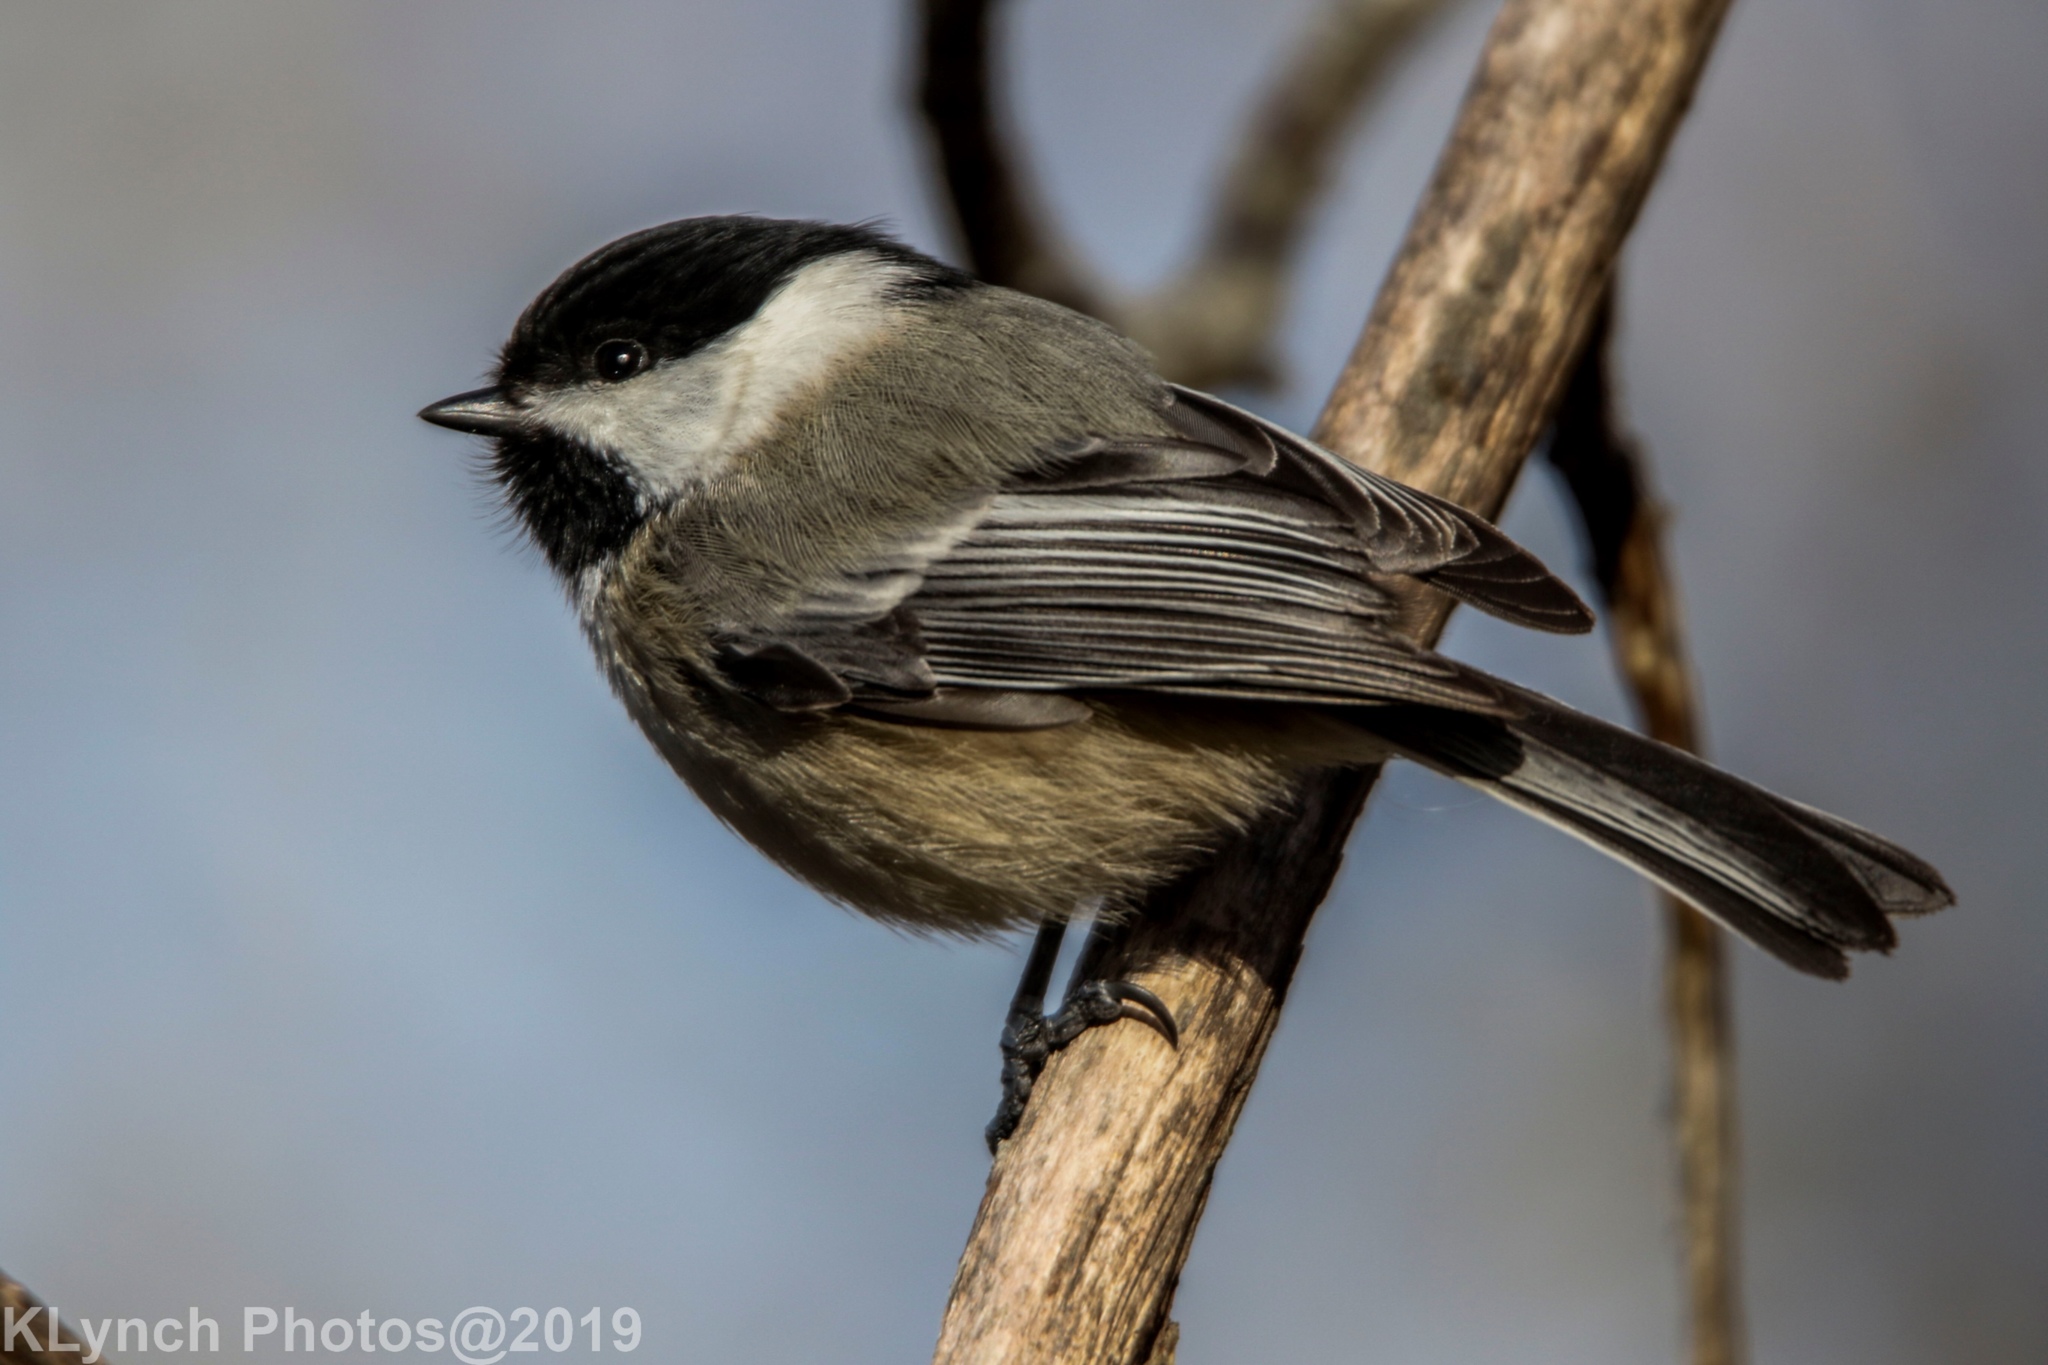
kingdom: Animalia
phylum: Chordata
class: Aves
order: Passeriformes
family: Paridae
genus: Poecile
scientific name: Poecile atricapillus
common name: Black-capped chickadee
